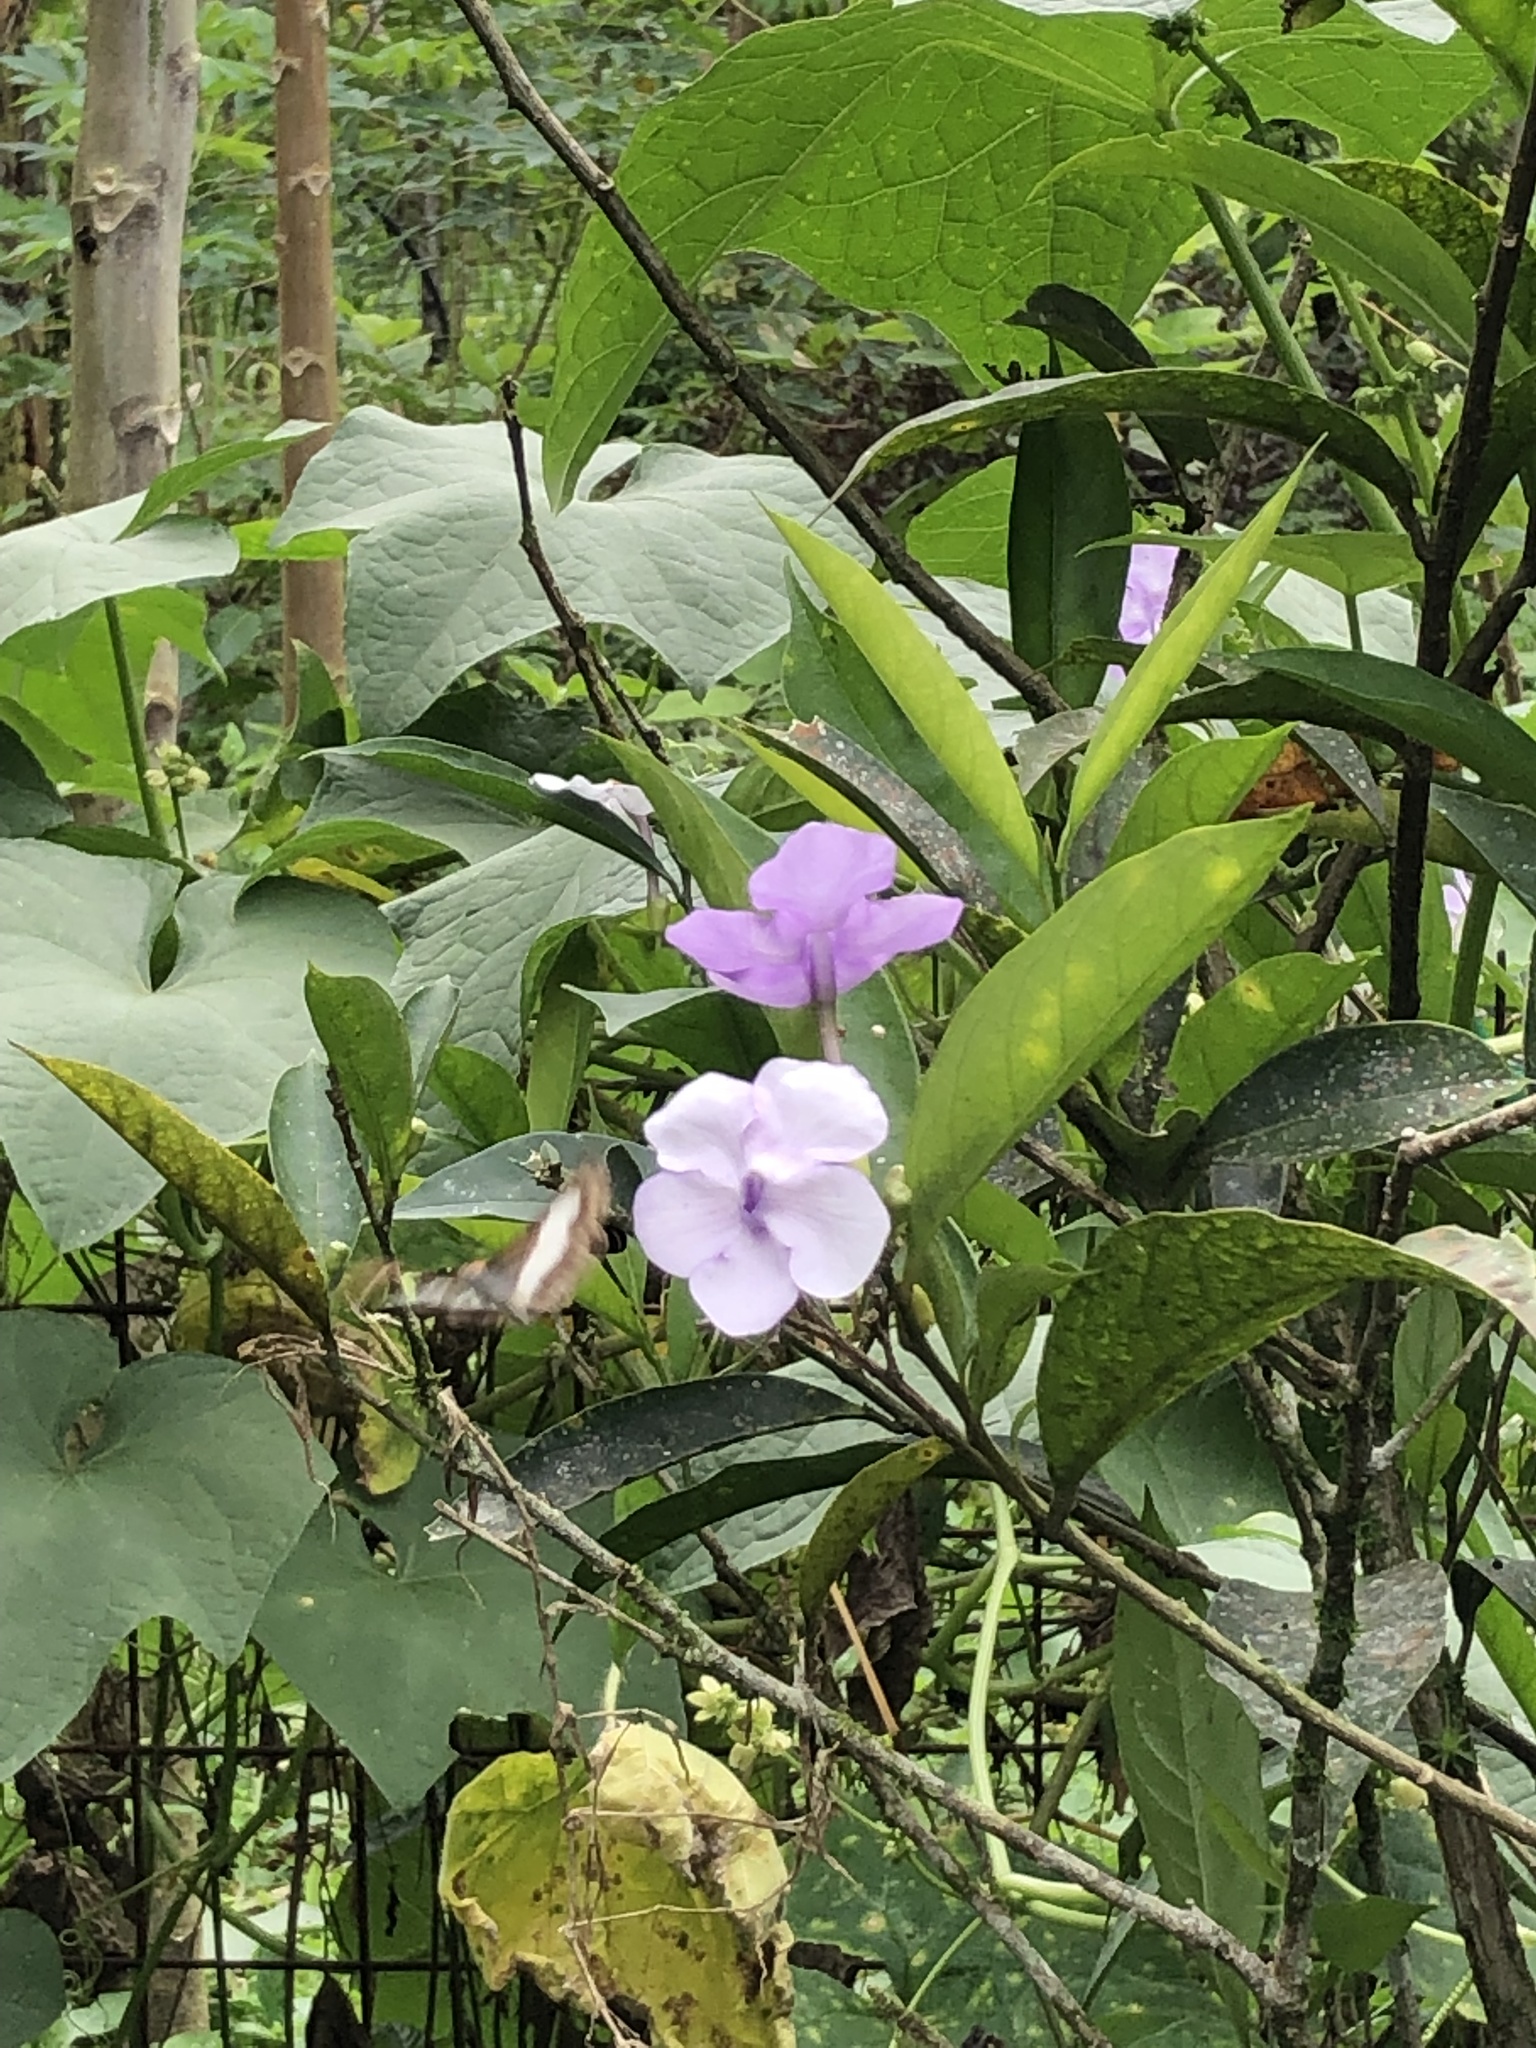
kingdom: Plantae
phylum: Tracheophyta
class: Magnoliopsida
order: Solanales
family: Solanaceae
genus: Brunfelsia
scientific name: Brunfelsia grandiflora
